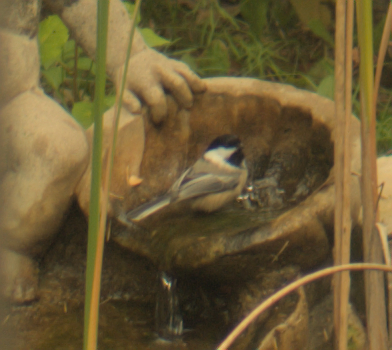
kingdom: Animalia
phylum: Chordata
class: Aves
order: Passeriformes
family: Paridae
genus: Poecile
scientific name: Poecile atricapillus
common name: Black-capped chickadee
